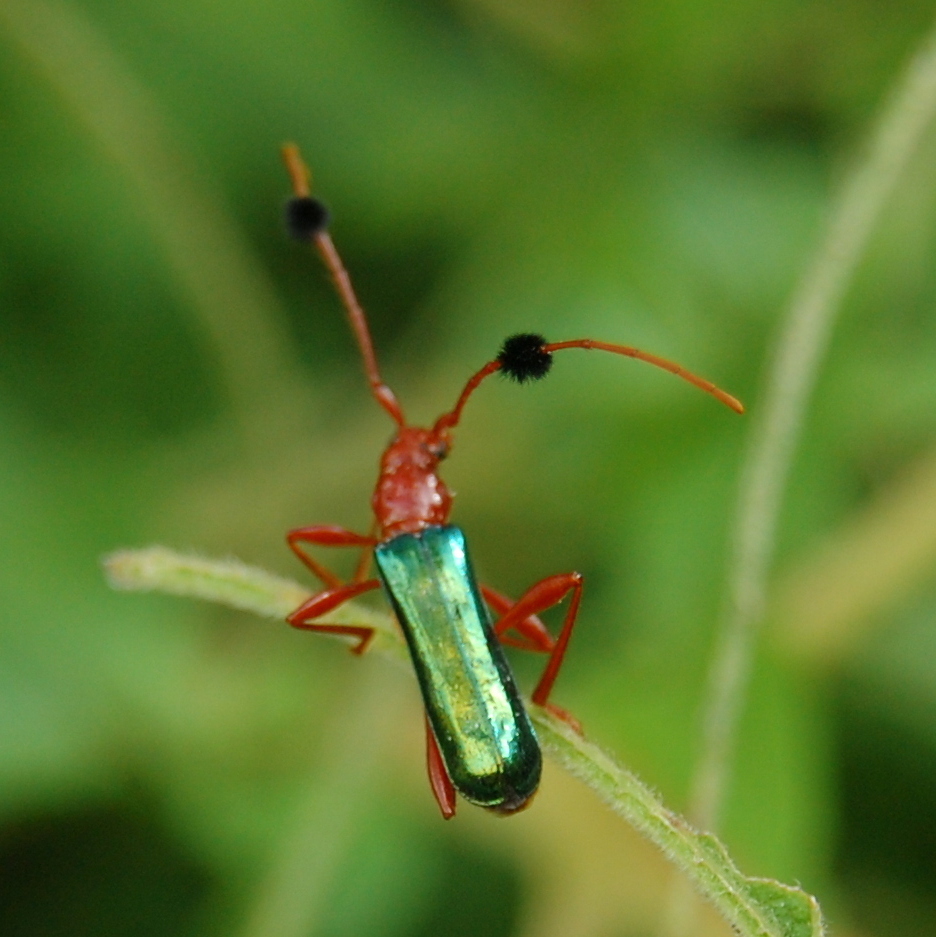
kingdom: Animalia
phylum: Arthropoda
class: Insecta
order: Coleoptera
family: Cerambycidae
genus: Paromoeocerus
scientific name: Paromoeocerus barbicornis
